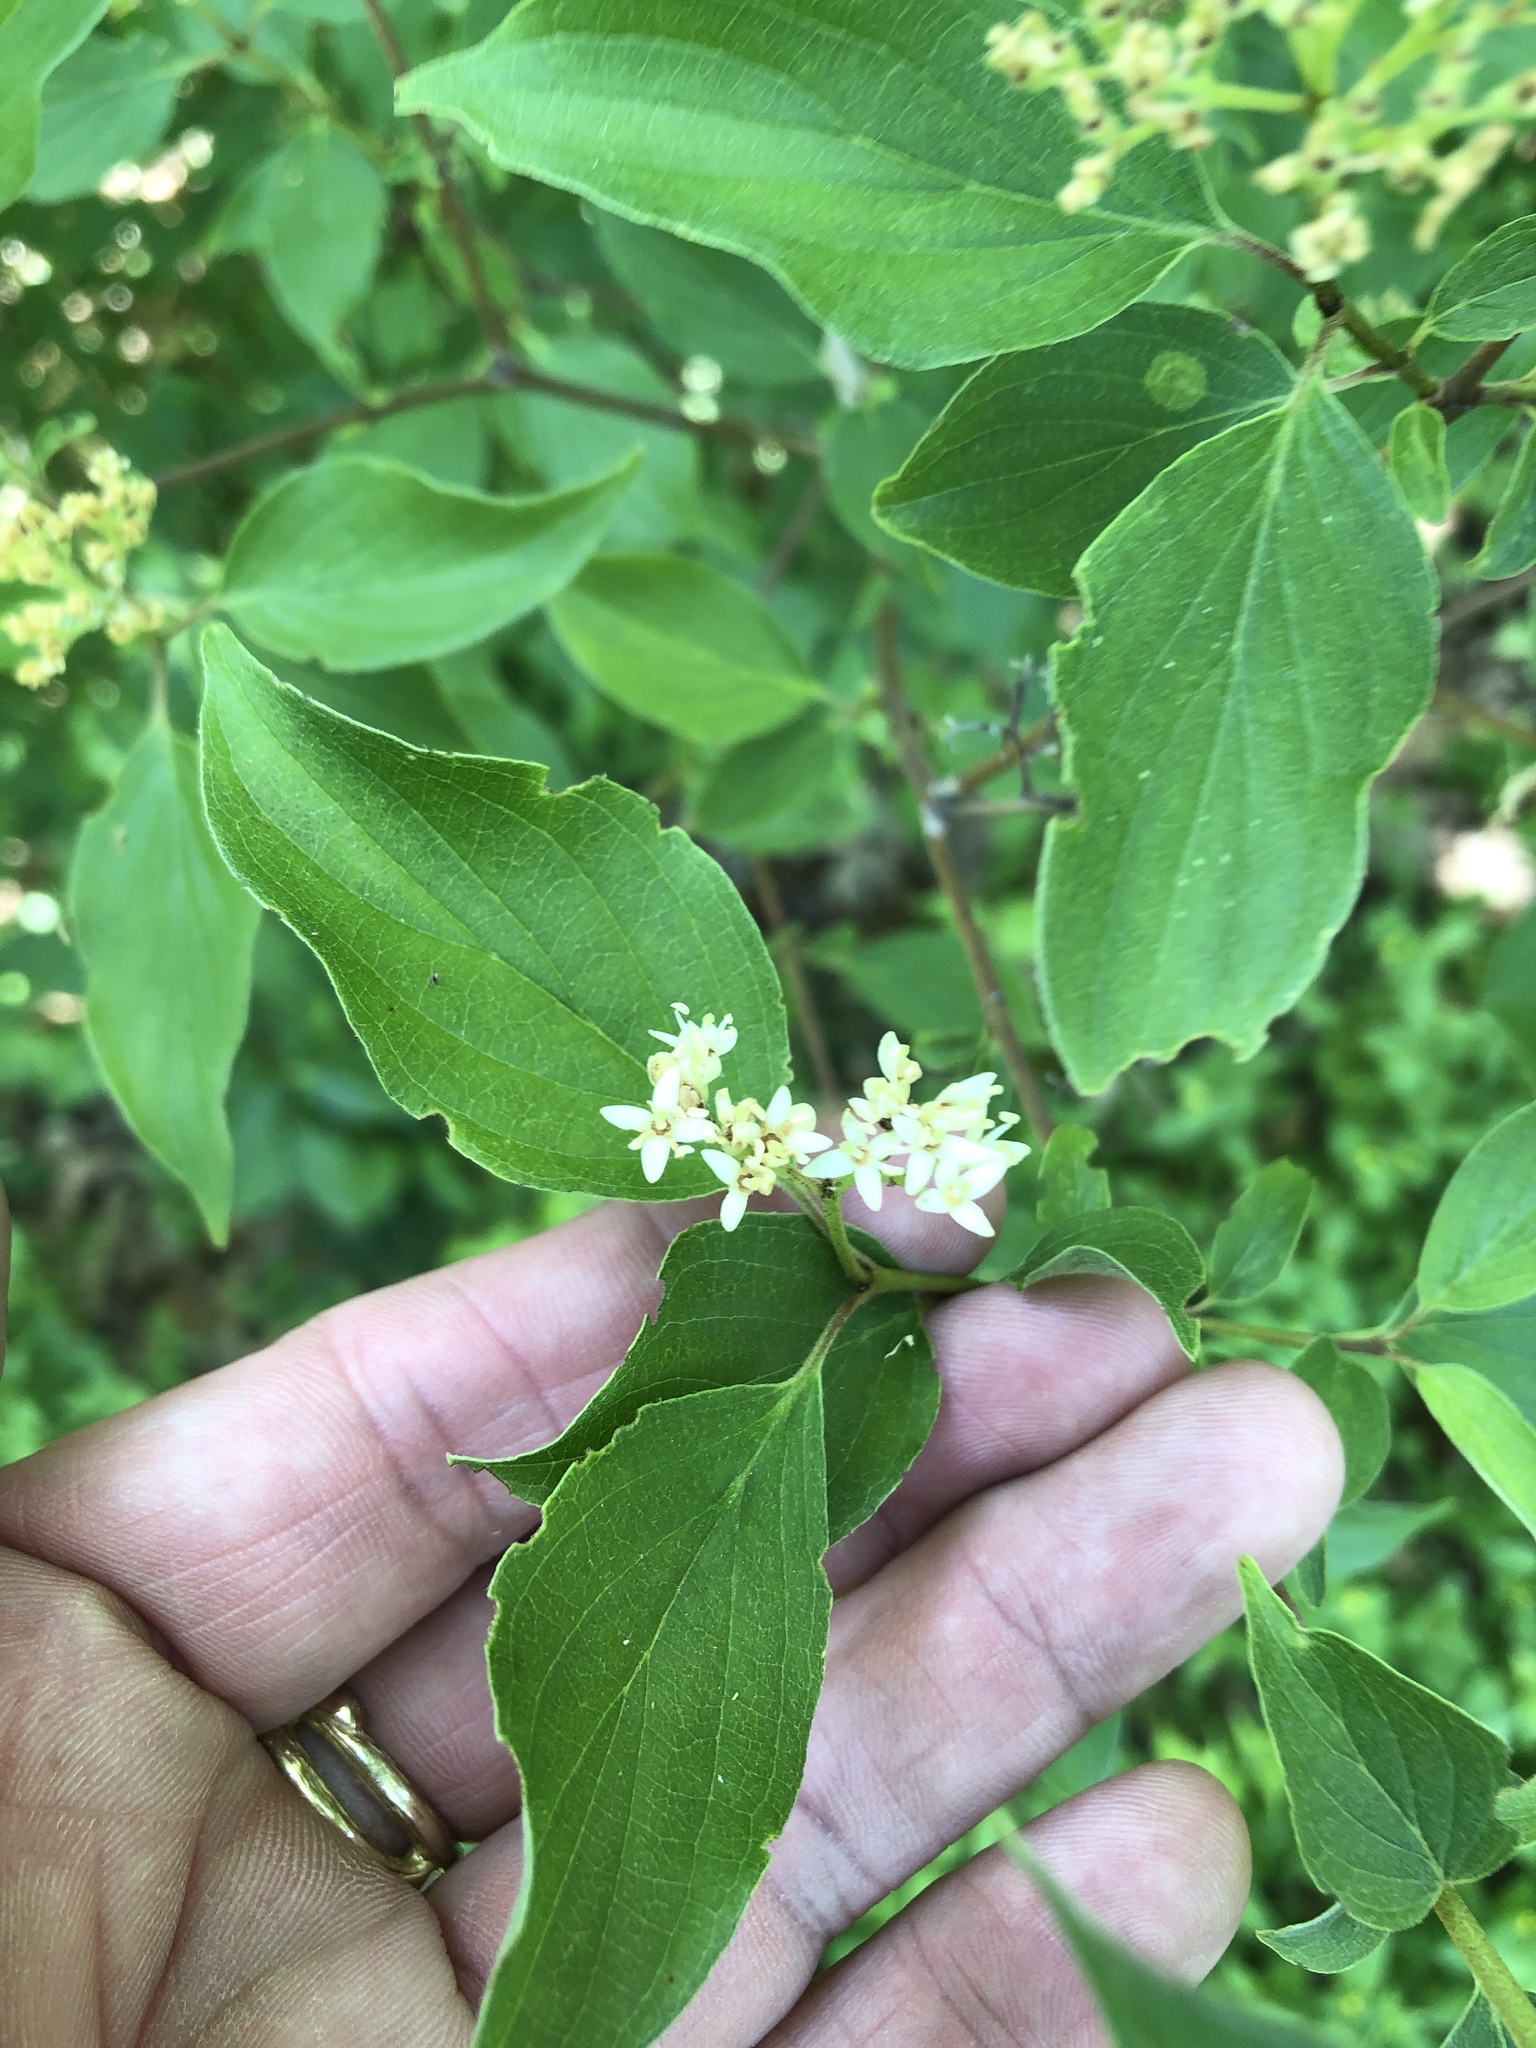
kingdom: Plantae
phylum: Tracheophyta
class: Magnoliopsida
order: Cornales
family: Cornaceae
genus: Cornus
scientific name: Cornus drummondii
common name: Rough-leaf dogwood
